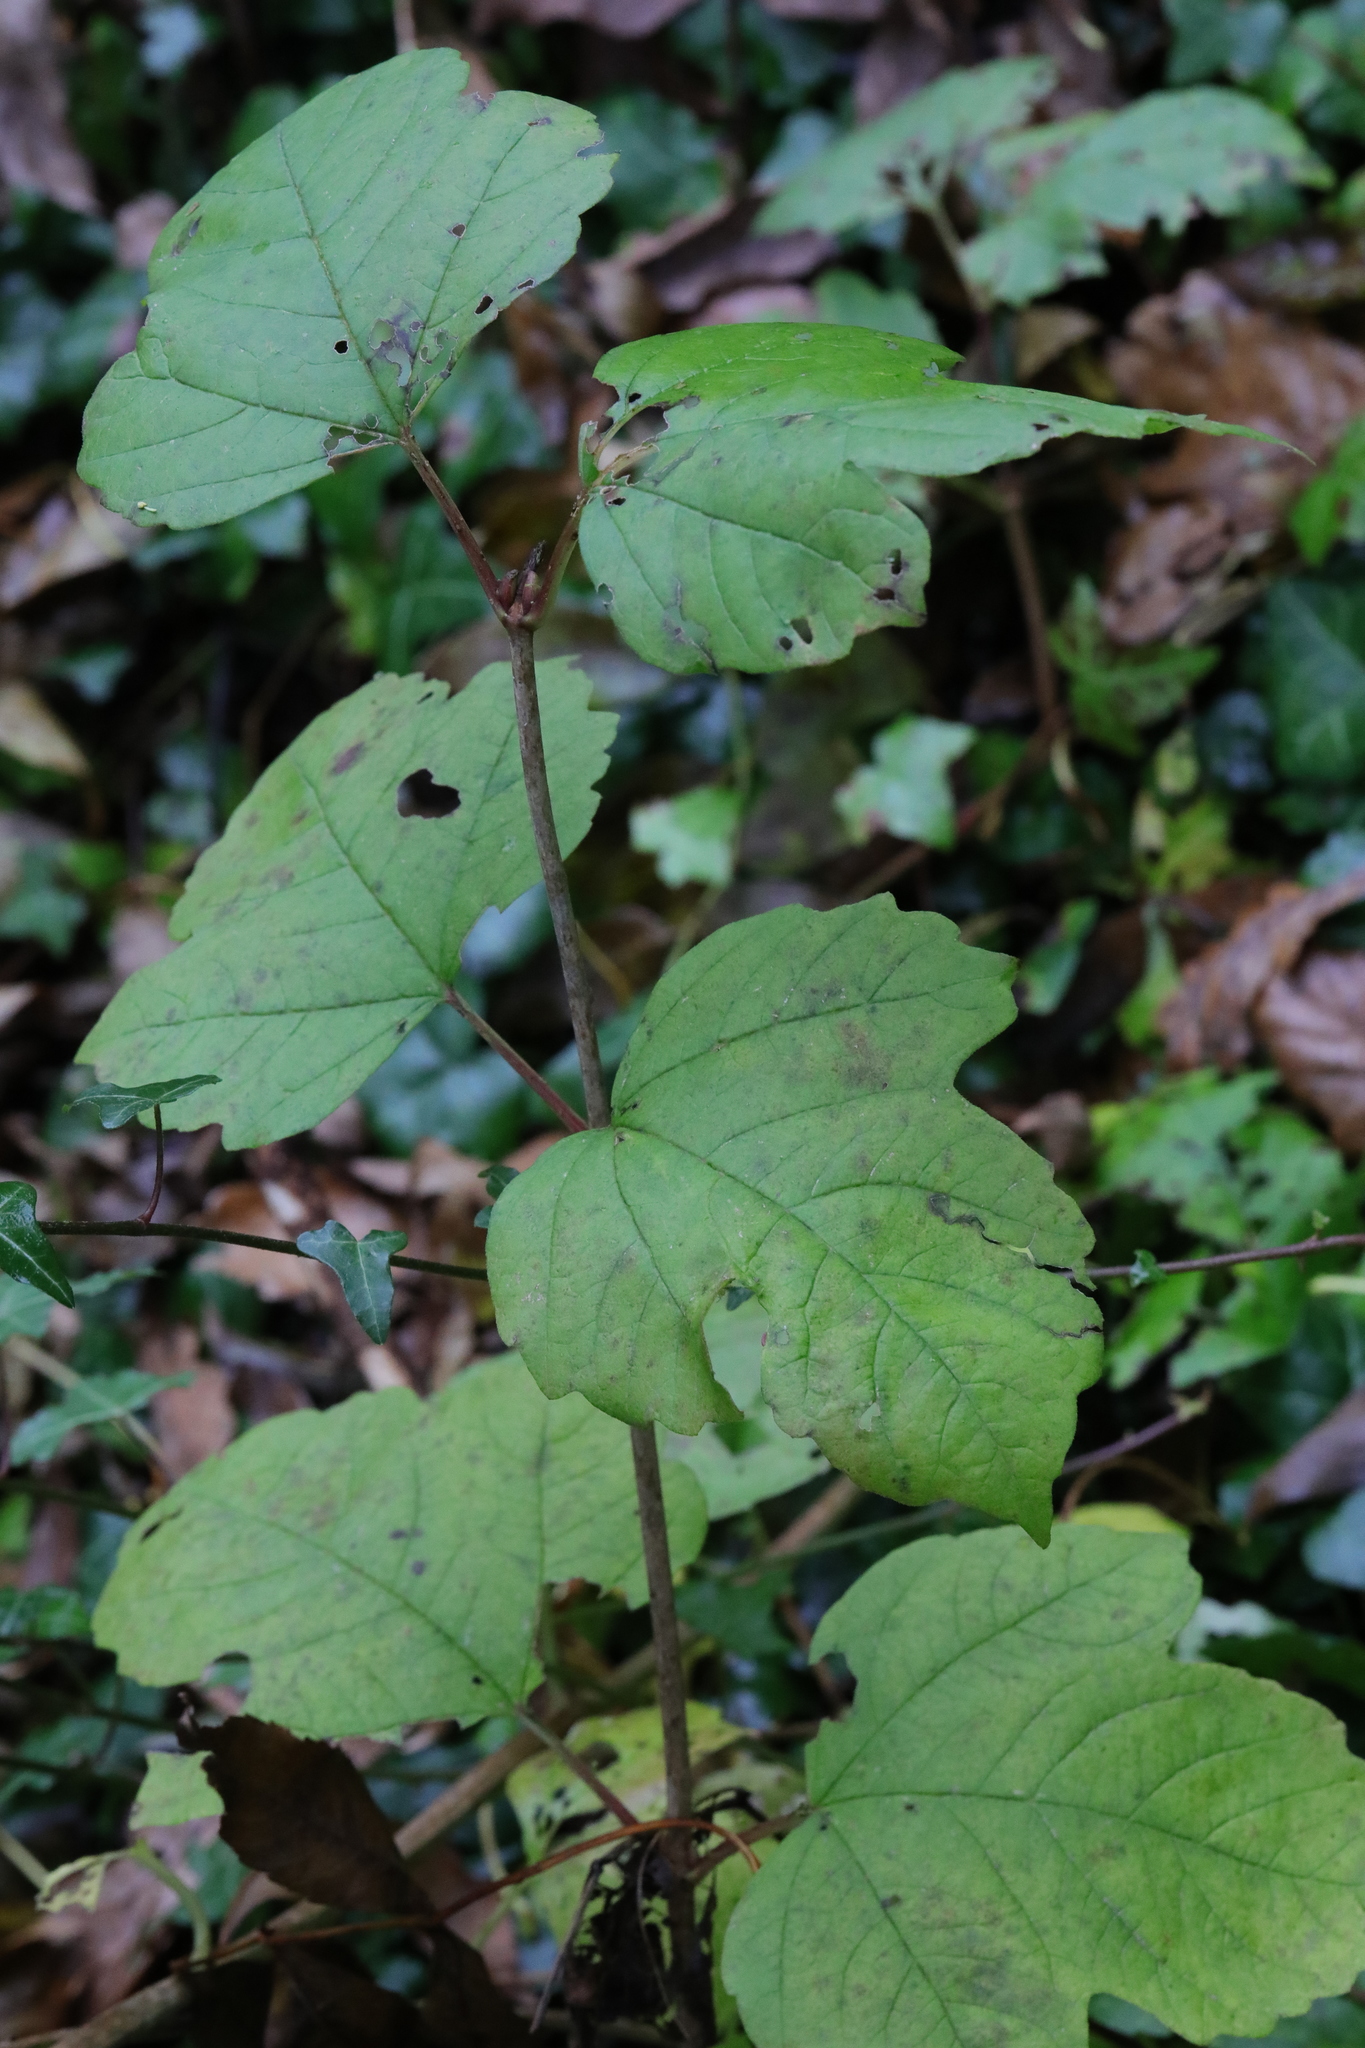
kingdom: Plantae
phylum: Tracheophyta
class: Magnoliopsida
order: Dipsacales
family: Viburnaceae
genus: Viburnum
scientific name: Viburnum opulus
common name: Guelder-rose
